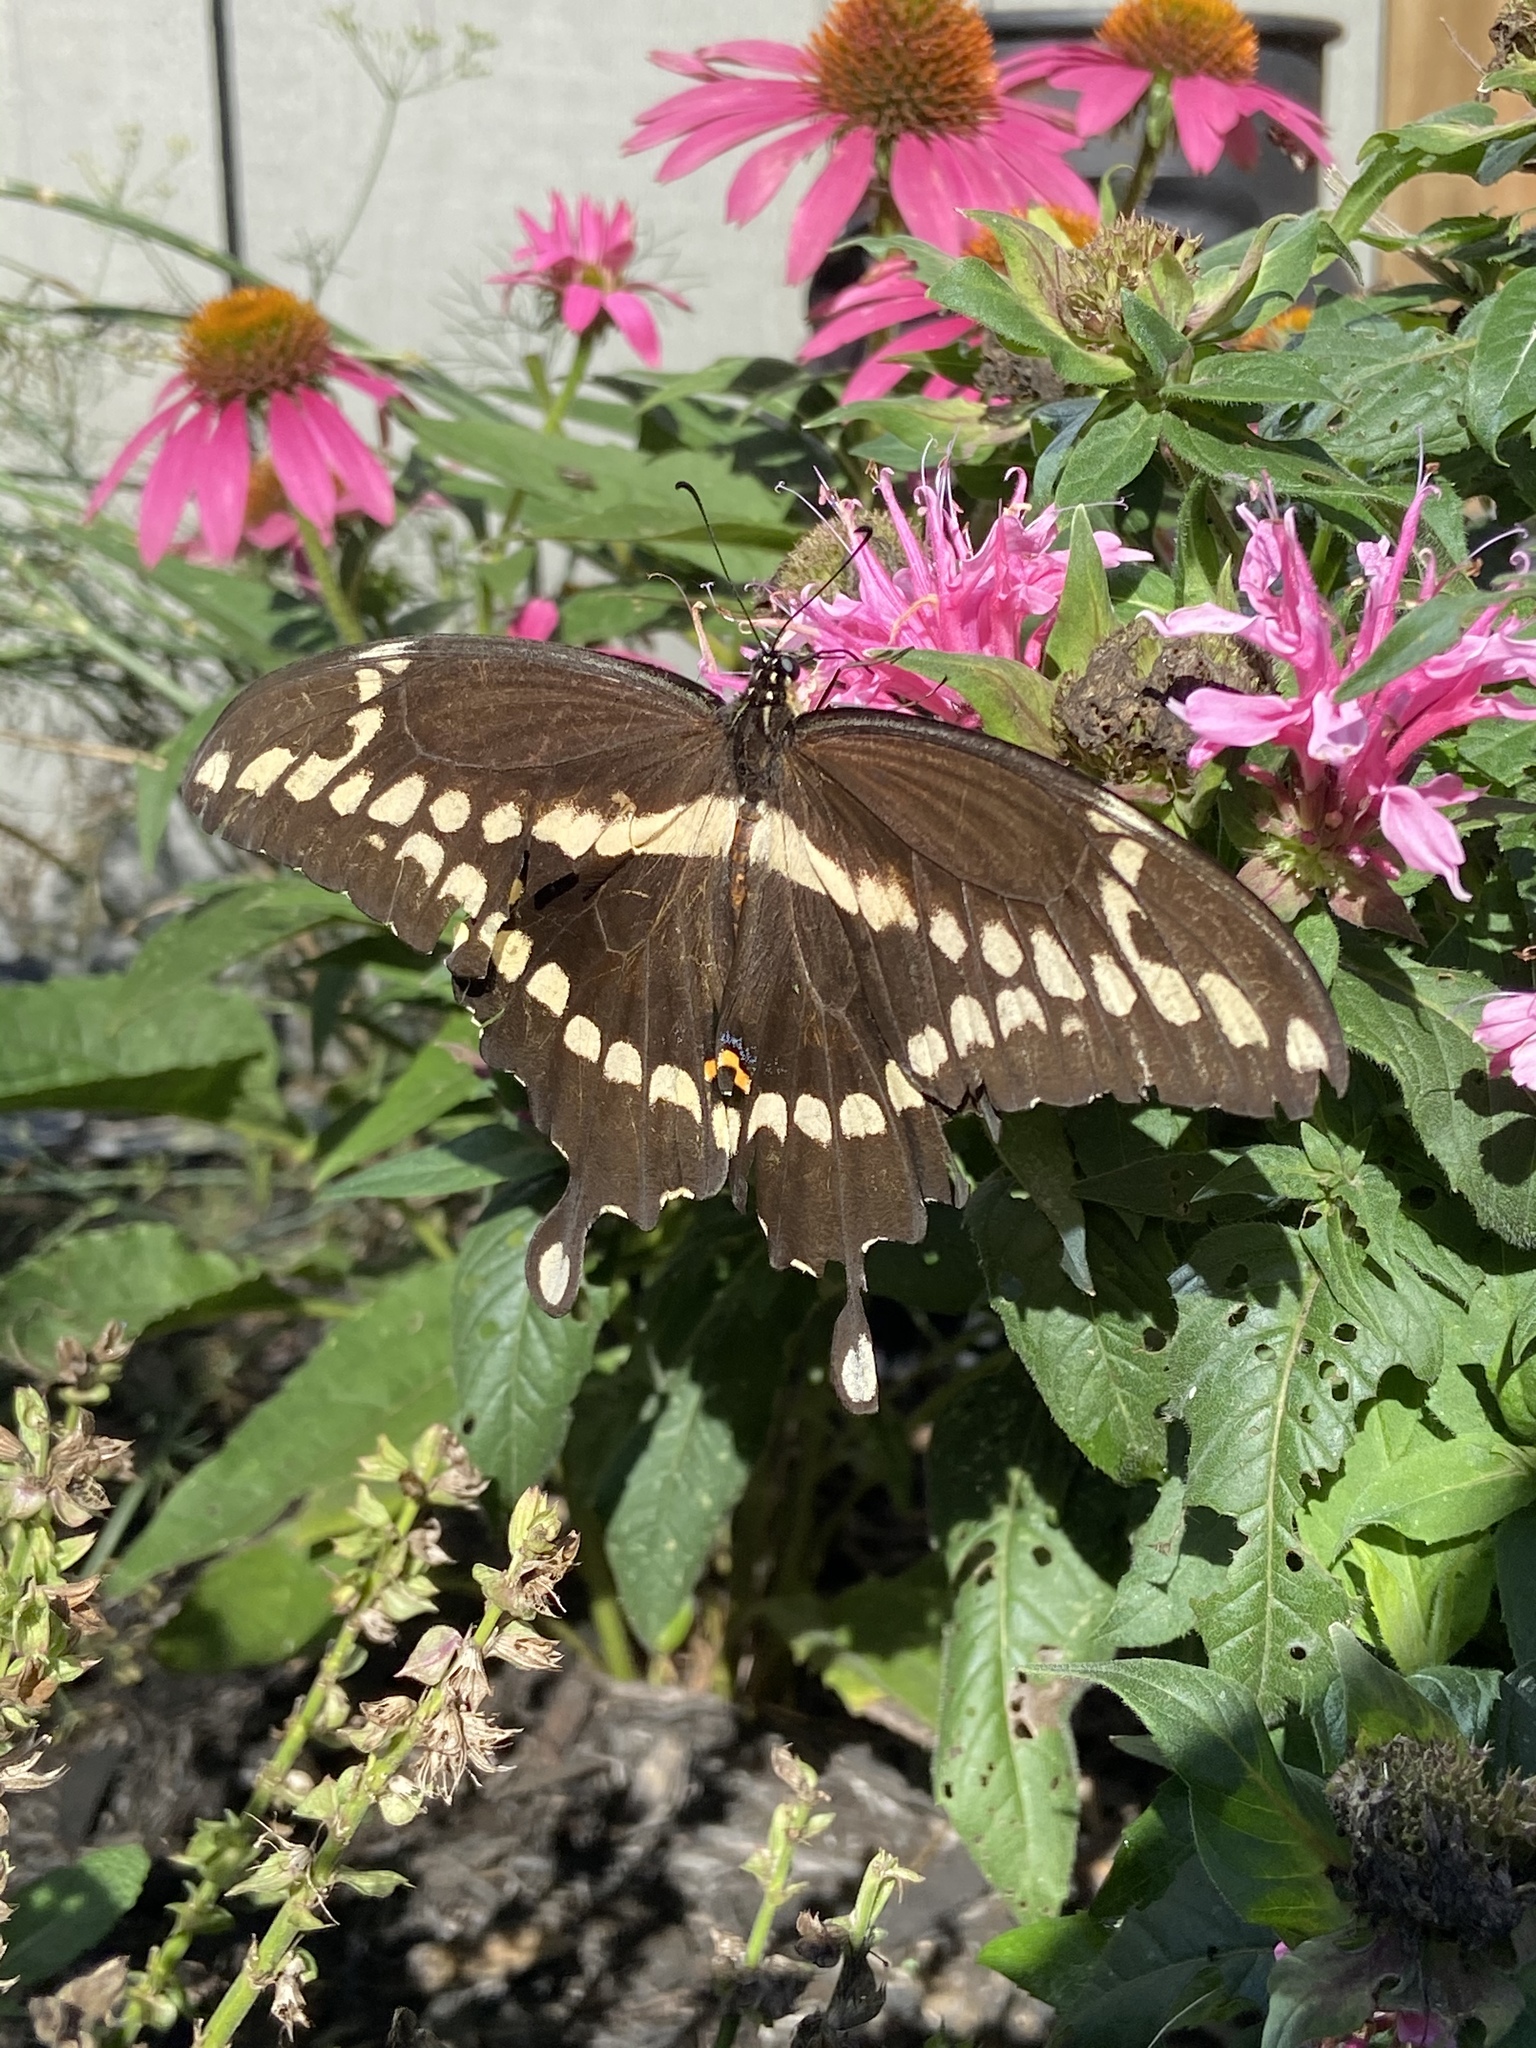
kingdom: Animalia
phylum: Arthropoda
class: Insecta
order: Lepidoptera
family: Papilionidae
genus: Papilio
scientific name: Papilio cresphontes
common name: Giant swallowtail
